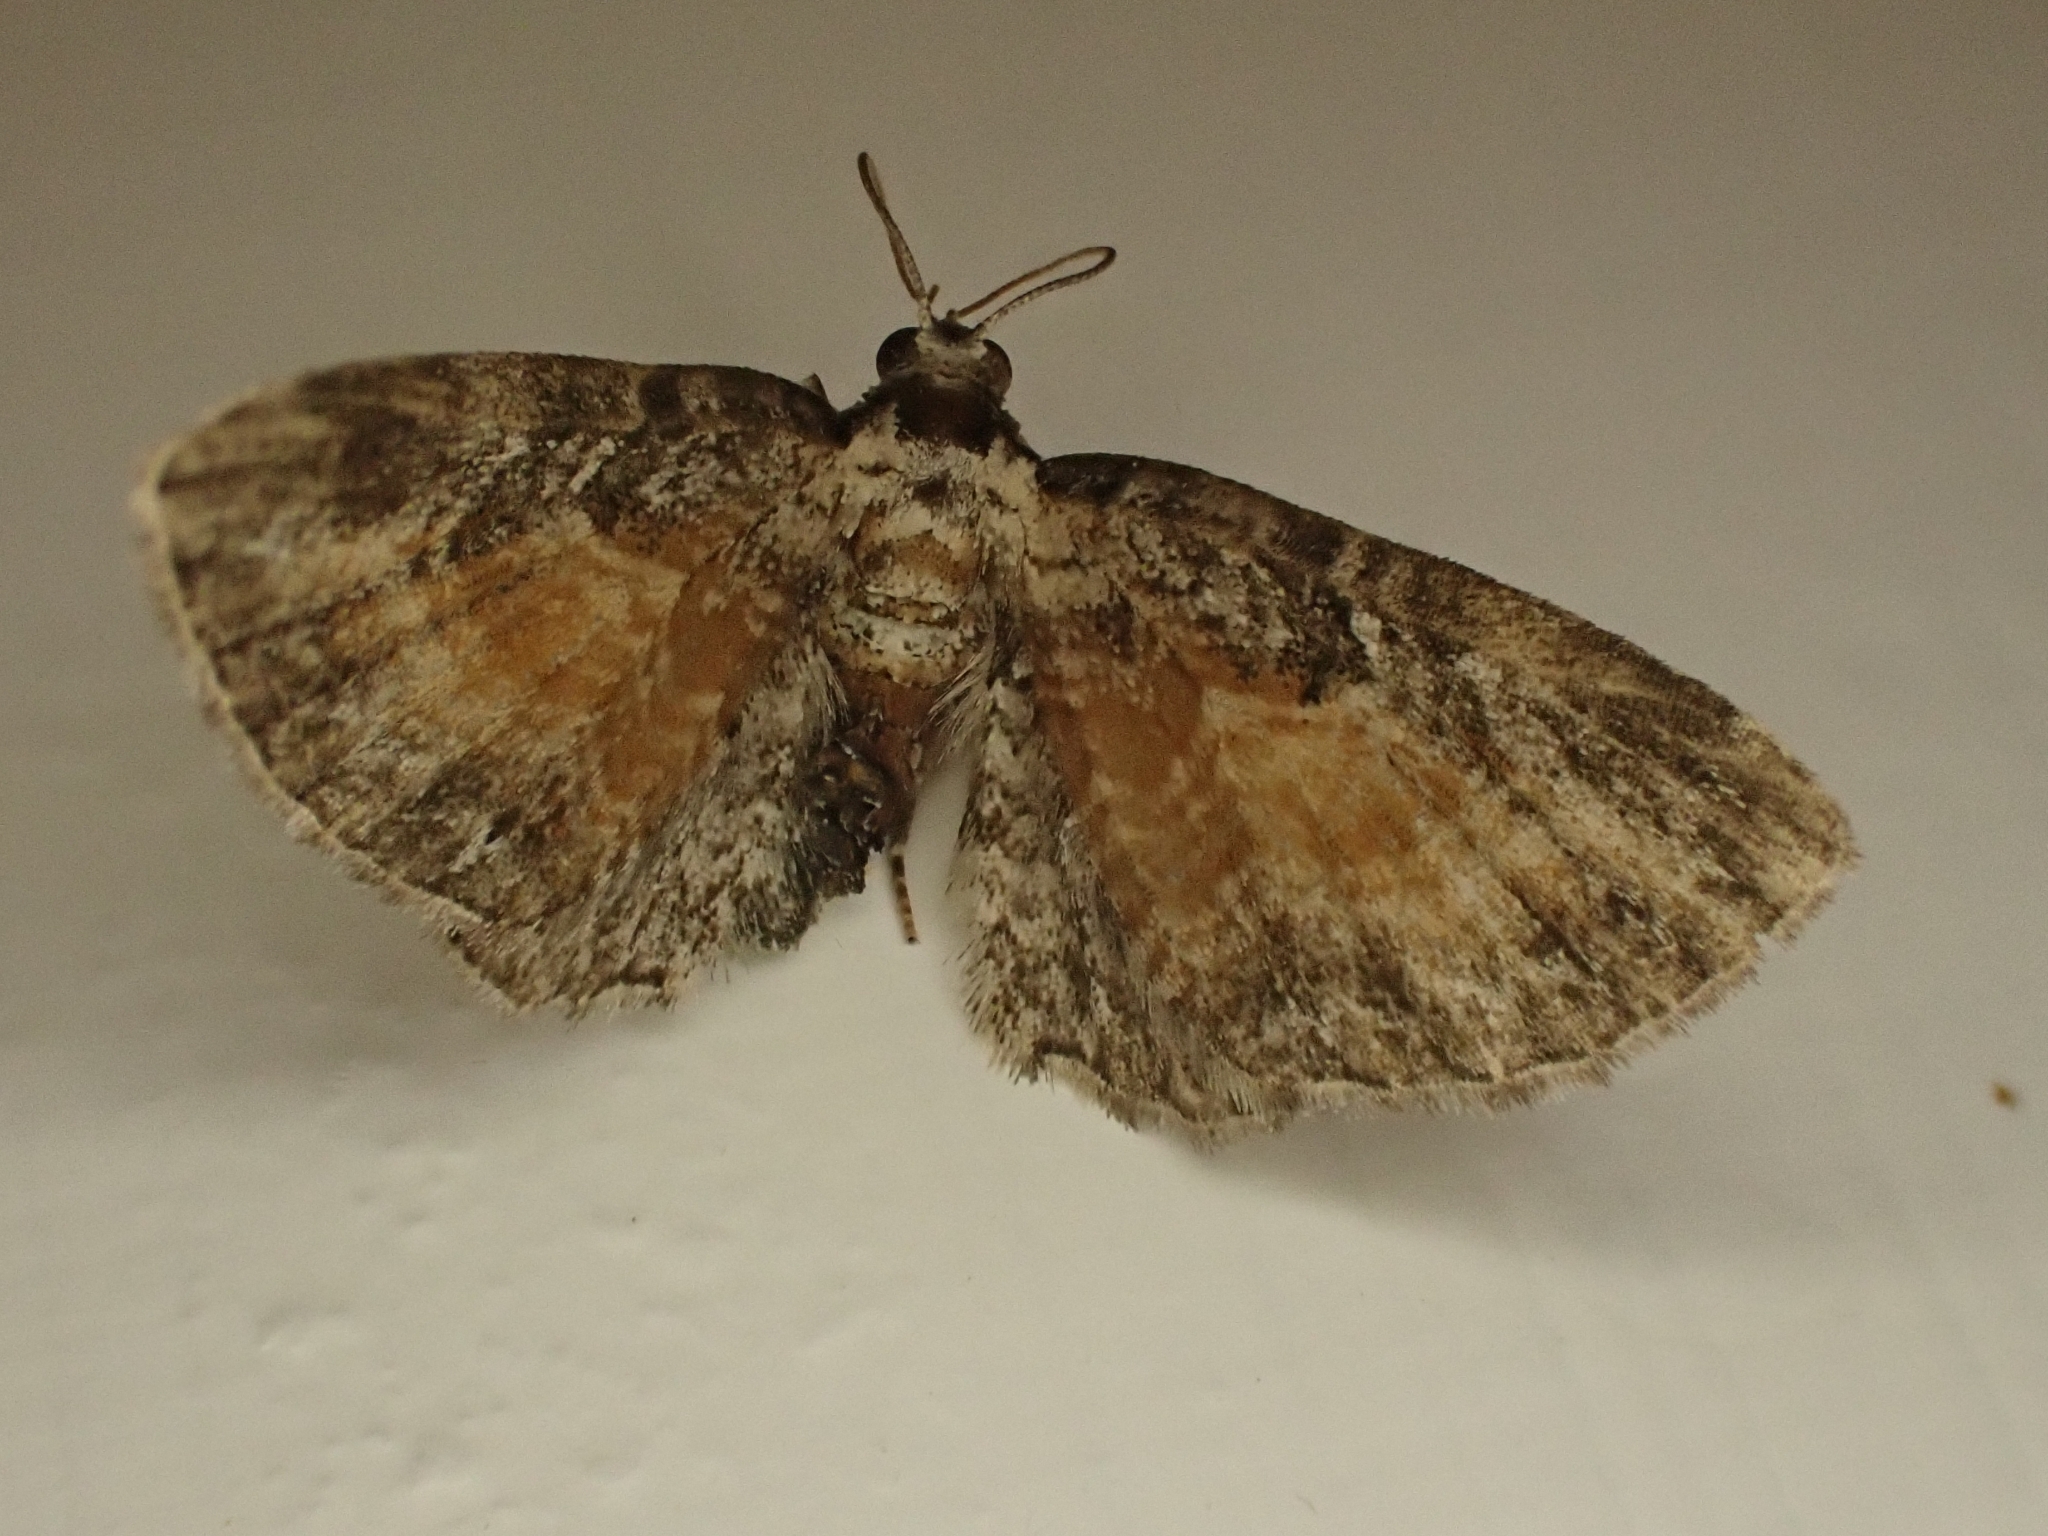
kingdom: Animalia
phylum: Arthropoda
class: Insecta
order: Lepidoptera
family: Geometridae
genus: Eupithecia
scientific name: Eupithecia icterata
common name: Tawny speckled pug
